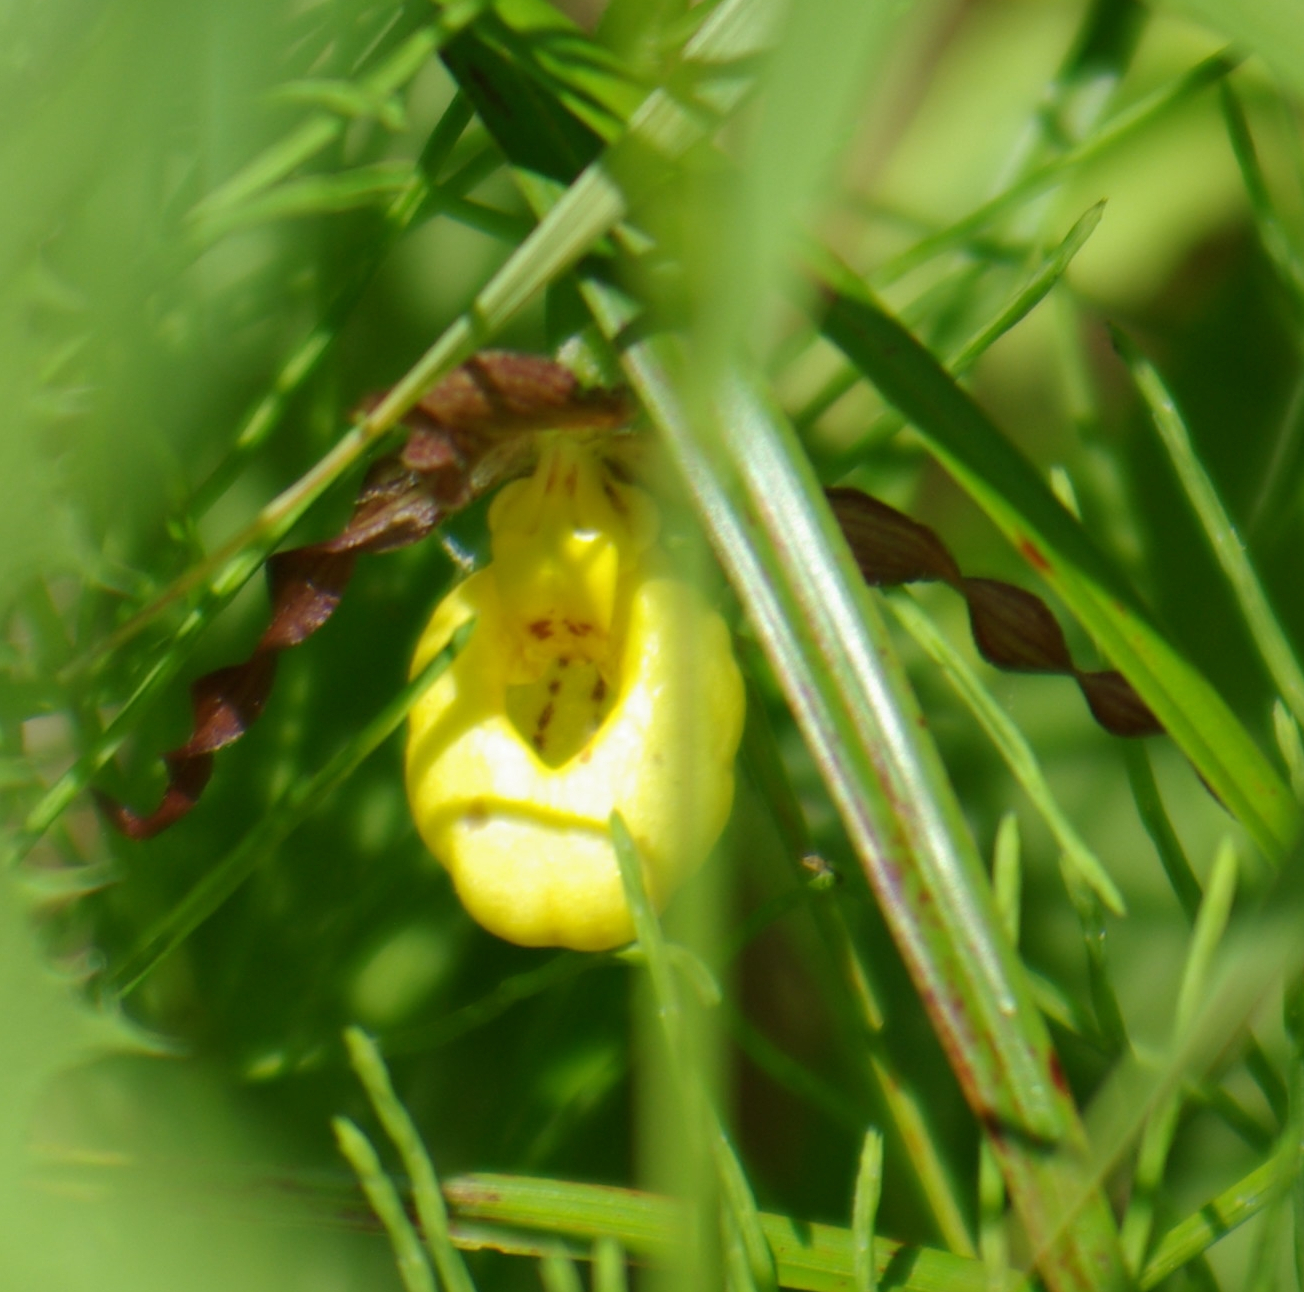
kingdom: Plantae
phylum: Tracheophyta
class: Liliopsida
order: Asparagales
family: Orchidaceae
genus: Cypripedium
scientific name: Cypripedium parviflorum
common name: American yellow lady's-slipper
